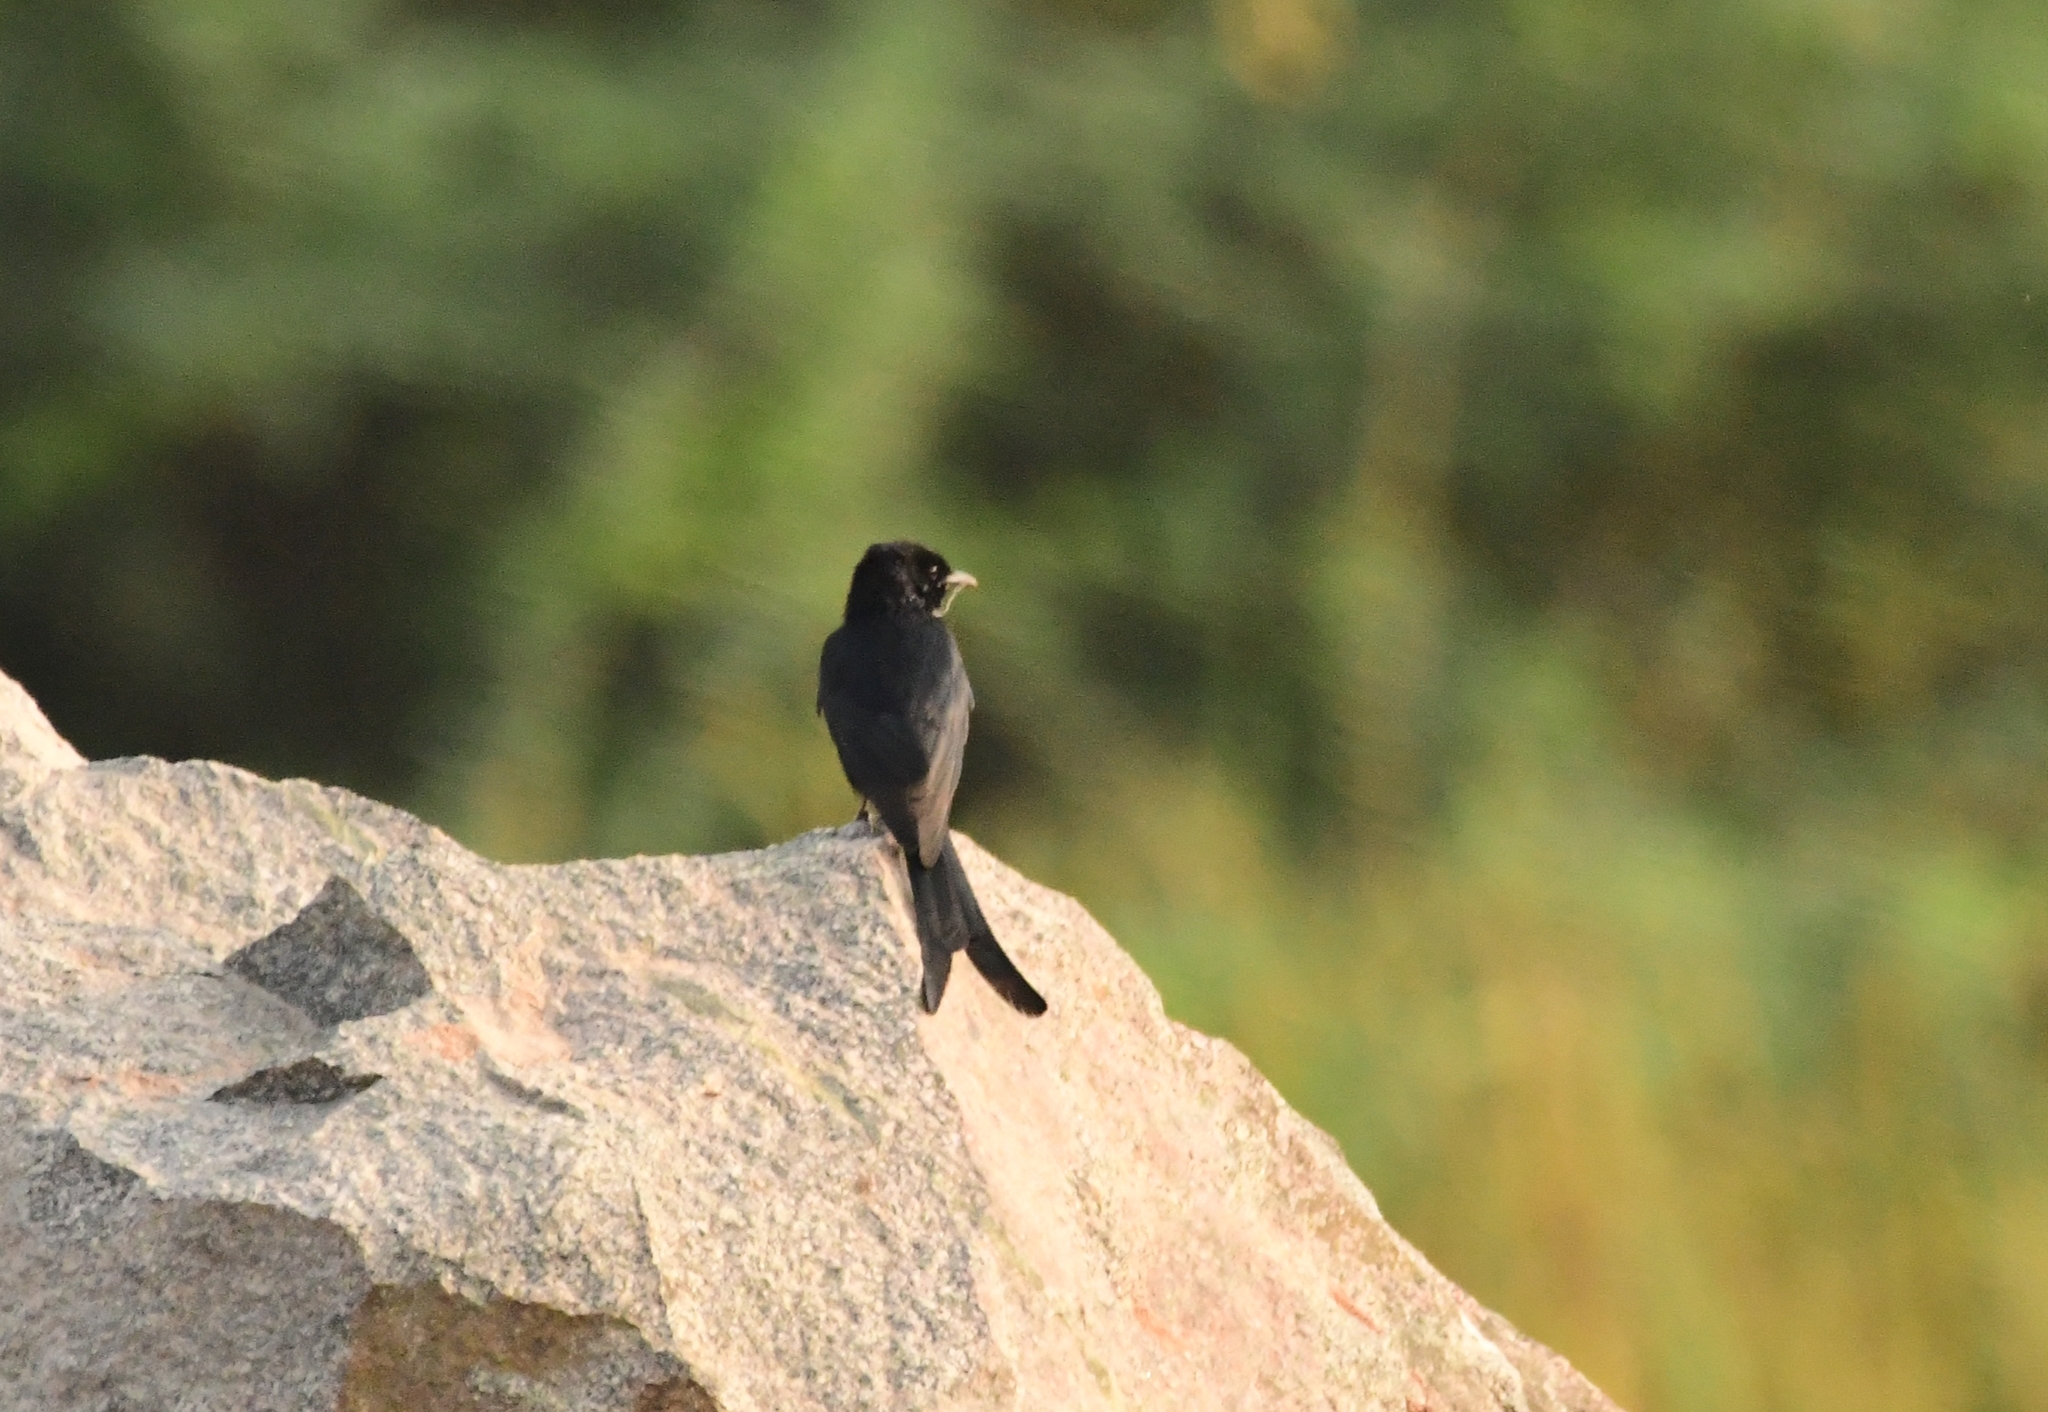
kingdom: Animalia
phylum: Chordata
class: Aves
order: Passeriformes
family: Dicruridae
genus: Dicrurus
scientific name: Dicrurus macrocercus
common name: Black drongo
